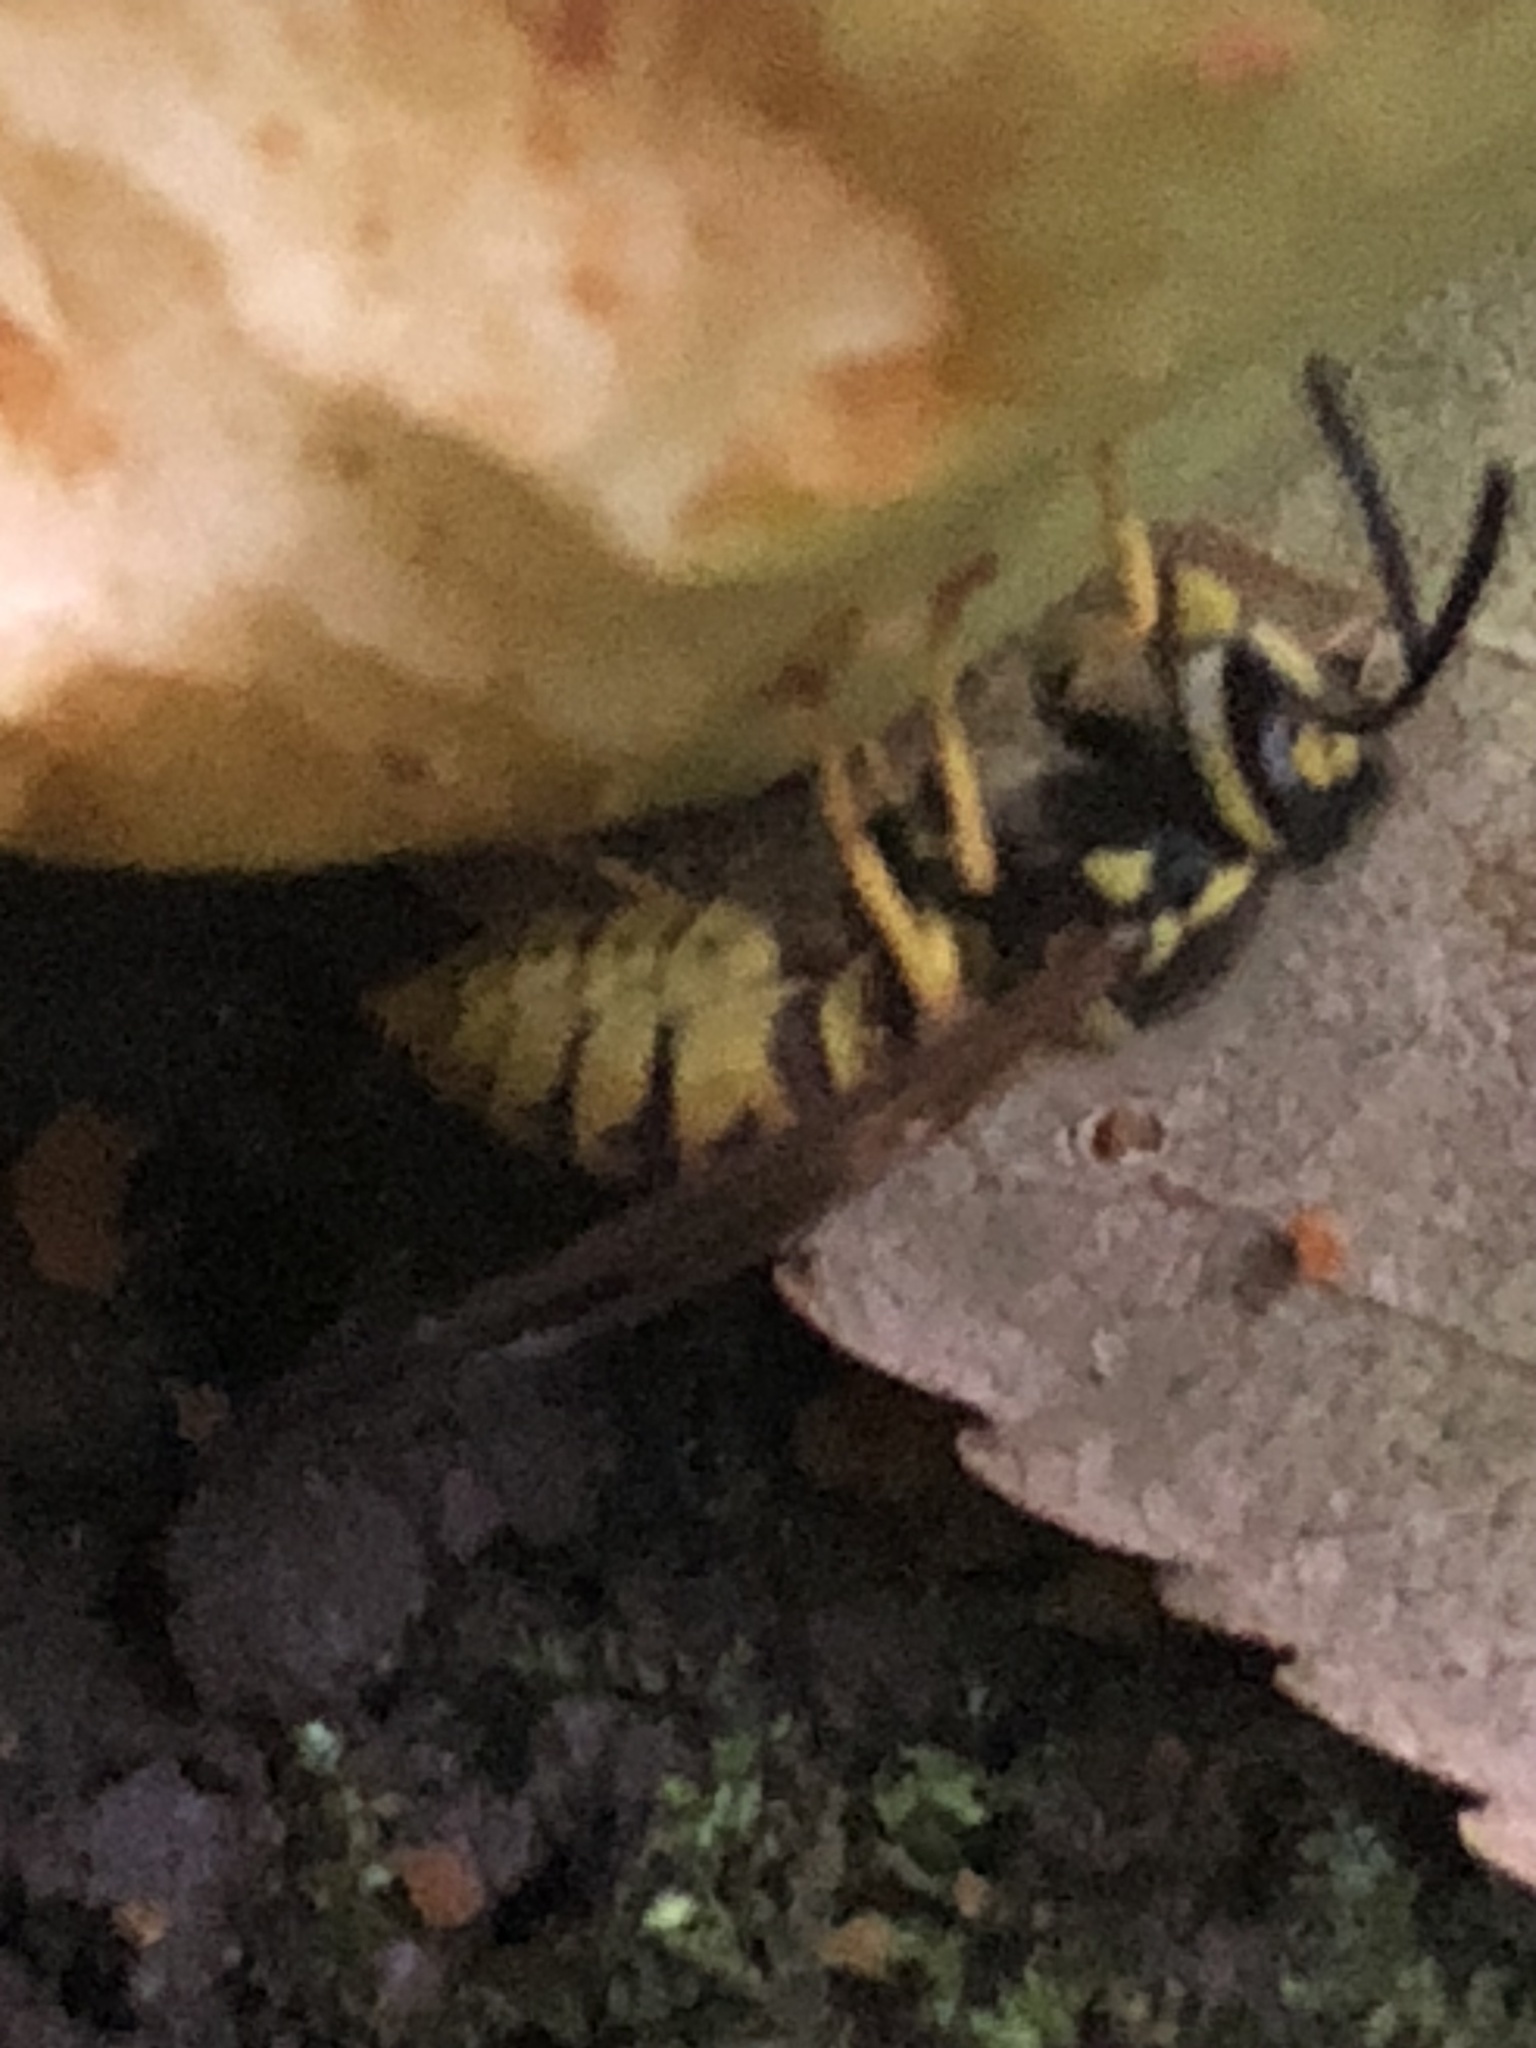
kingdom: Animalia
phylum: Arthropoda
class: Insecta
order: Hymenoptera
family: Vespidae
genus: Vespula
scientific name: Vespula germanica
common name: German wasp
